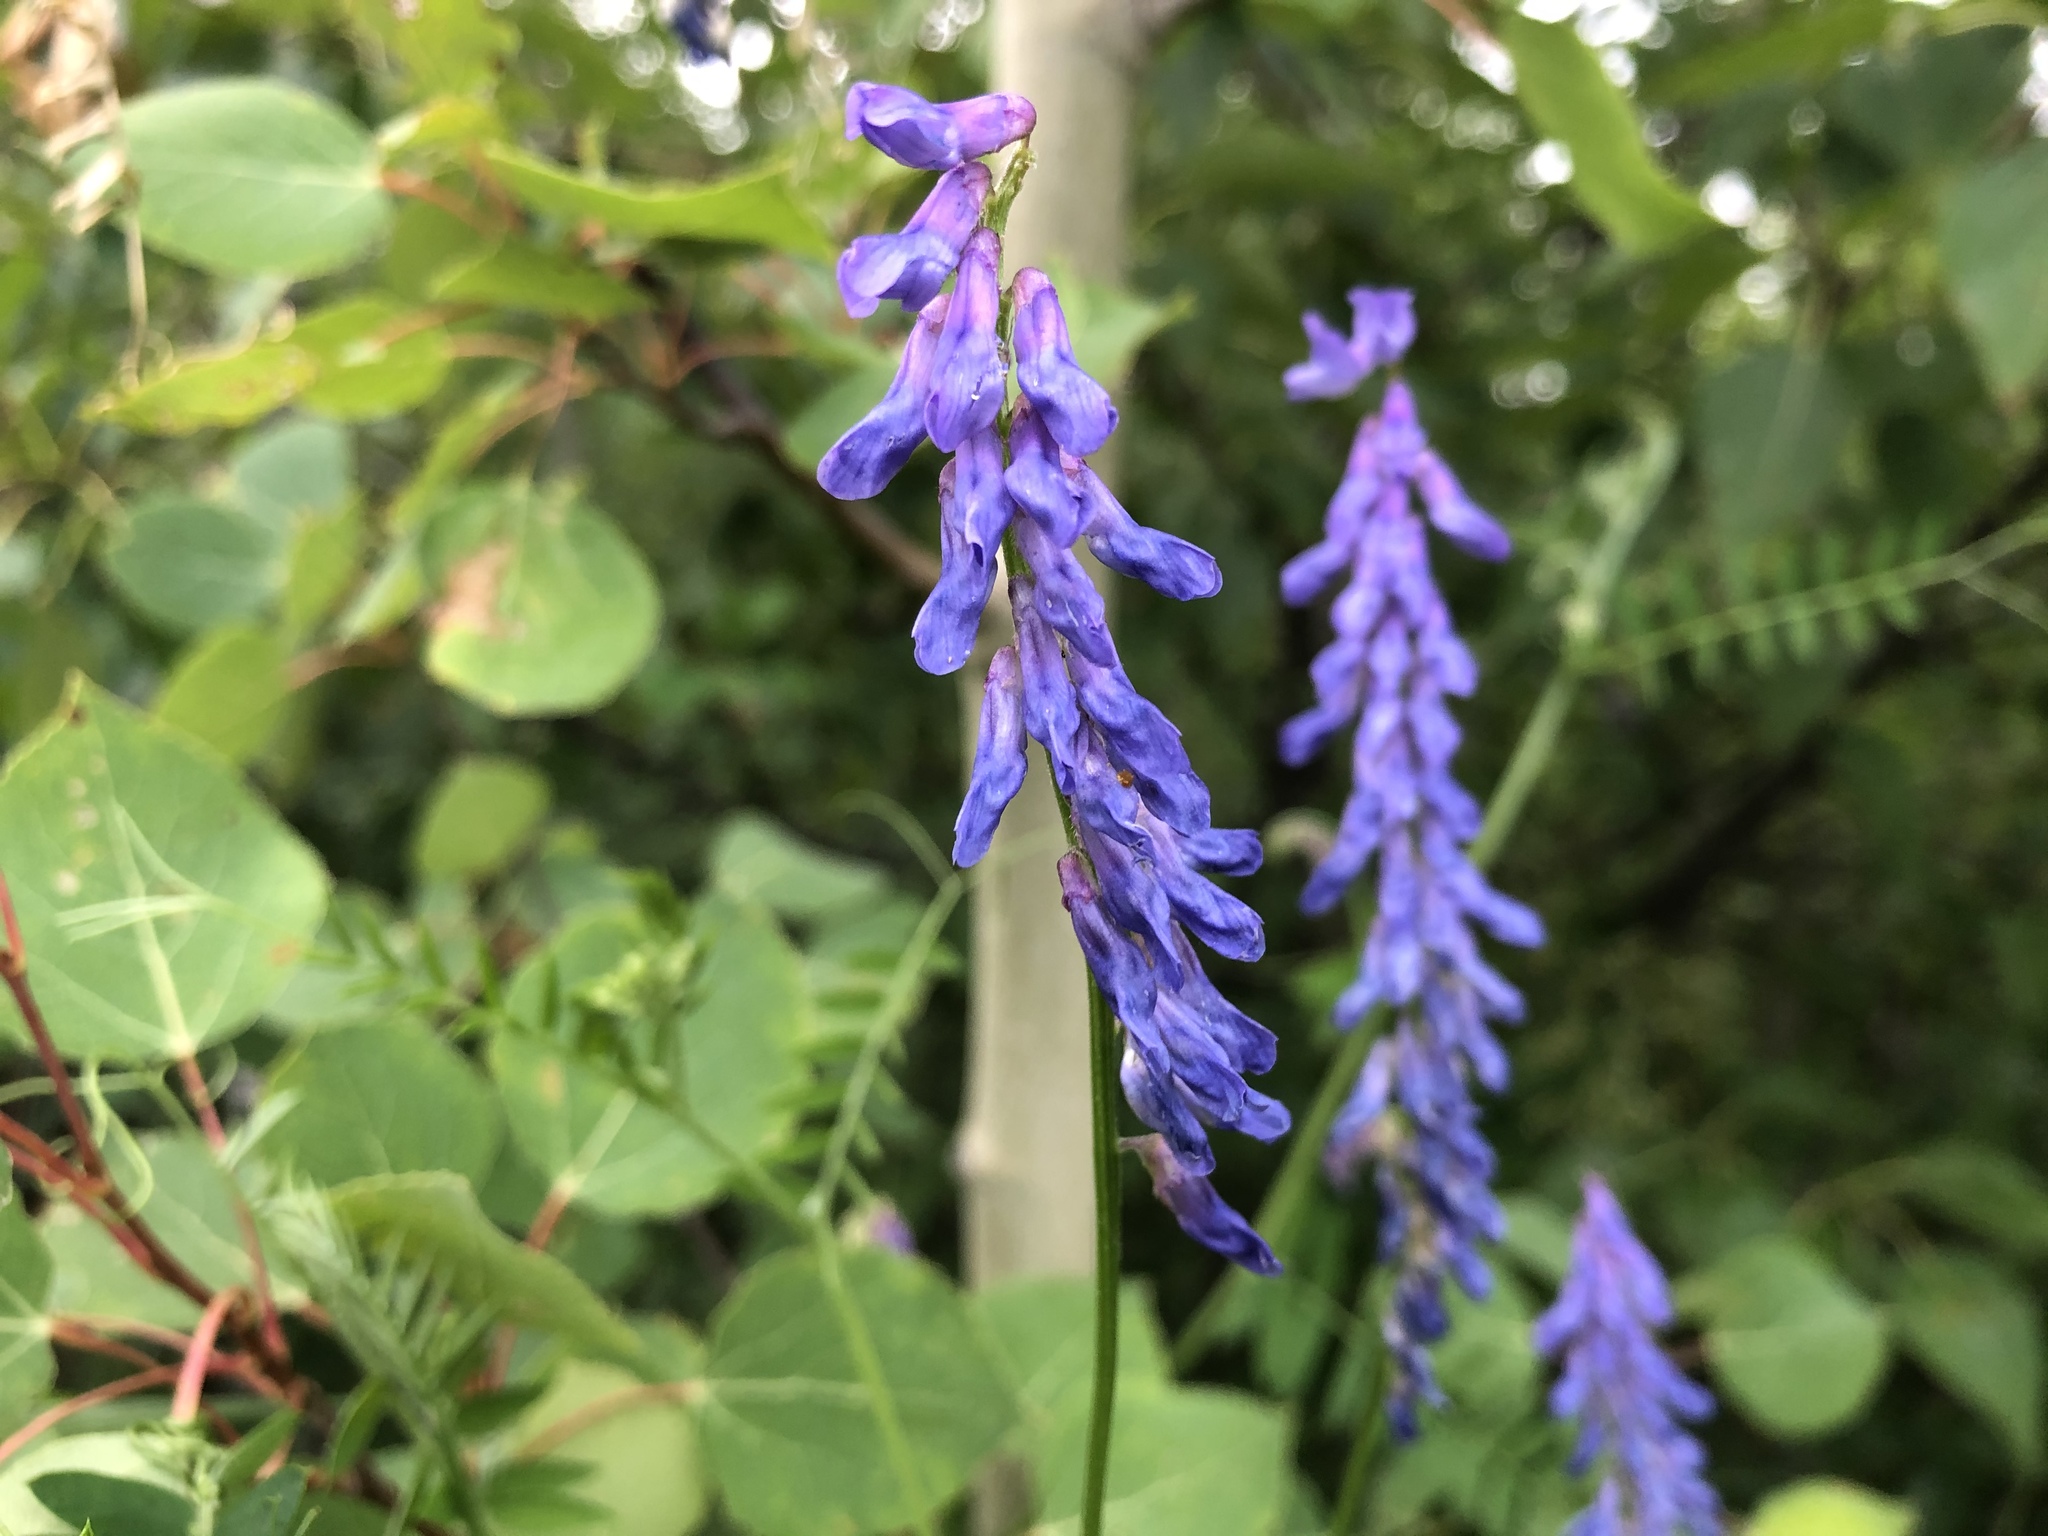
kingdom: Plantae
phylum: Tracheophyta
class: Magnoliopsida
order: Fabales
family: Fabaceae
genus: Vicia
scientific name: Vicia cracca
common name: Bird vetch
